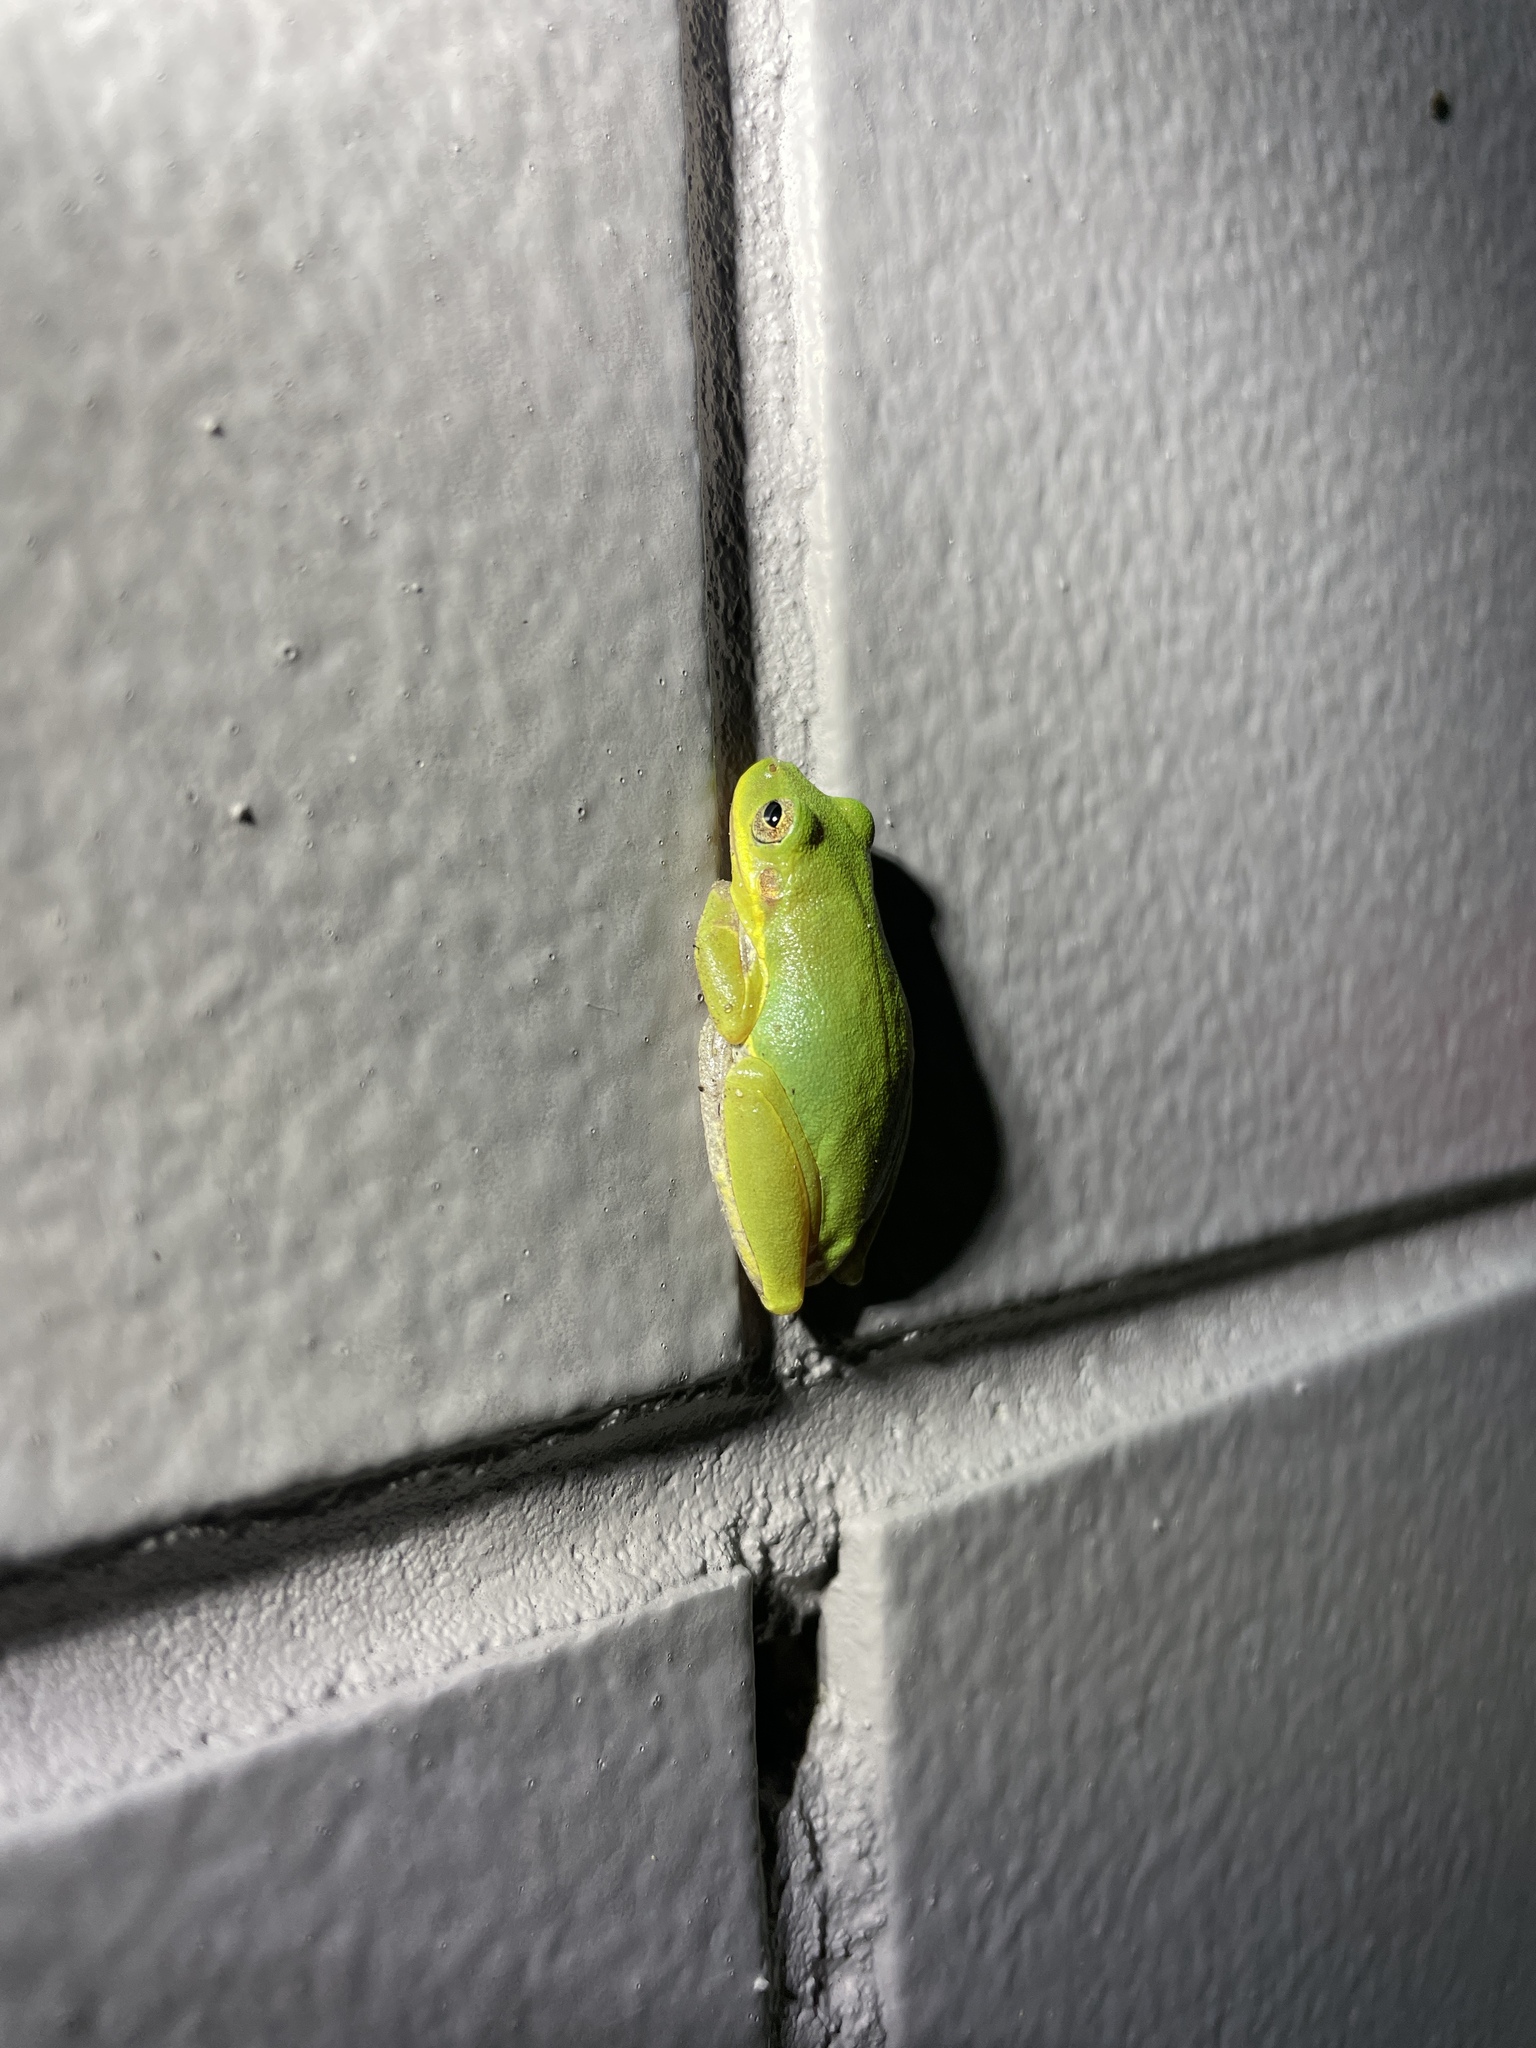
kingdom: Animalia
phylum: Chordata
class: Amphibia
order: Anura
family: Hylidae
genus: Dryophytes
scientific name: Dryophytes squirellus
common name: Squirrel treefrog
